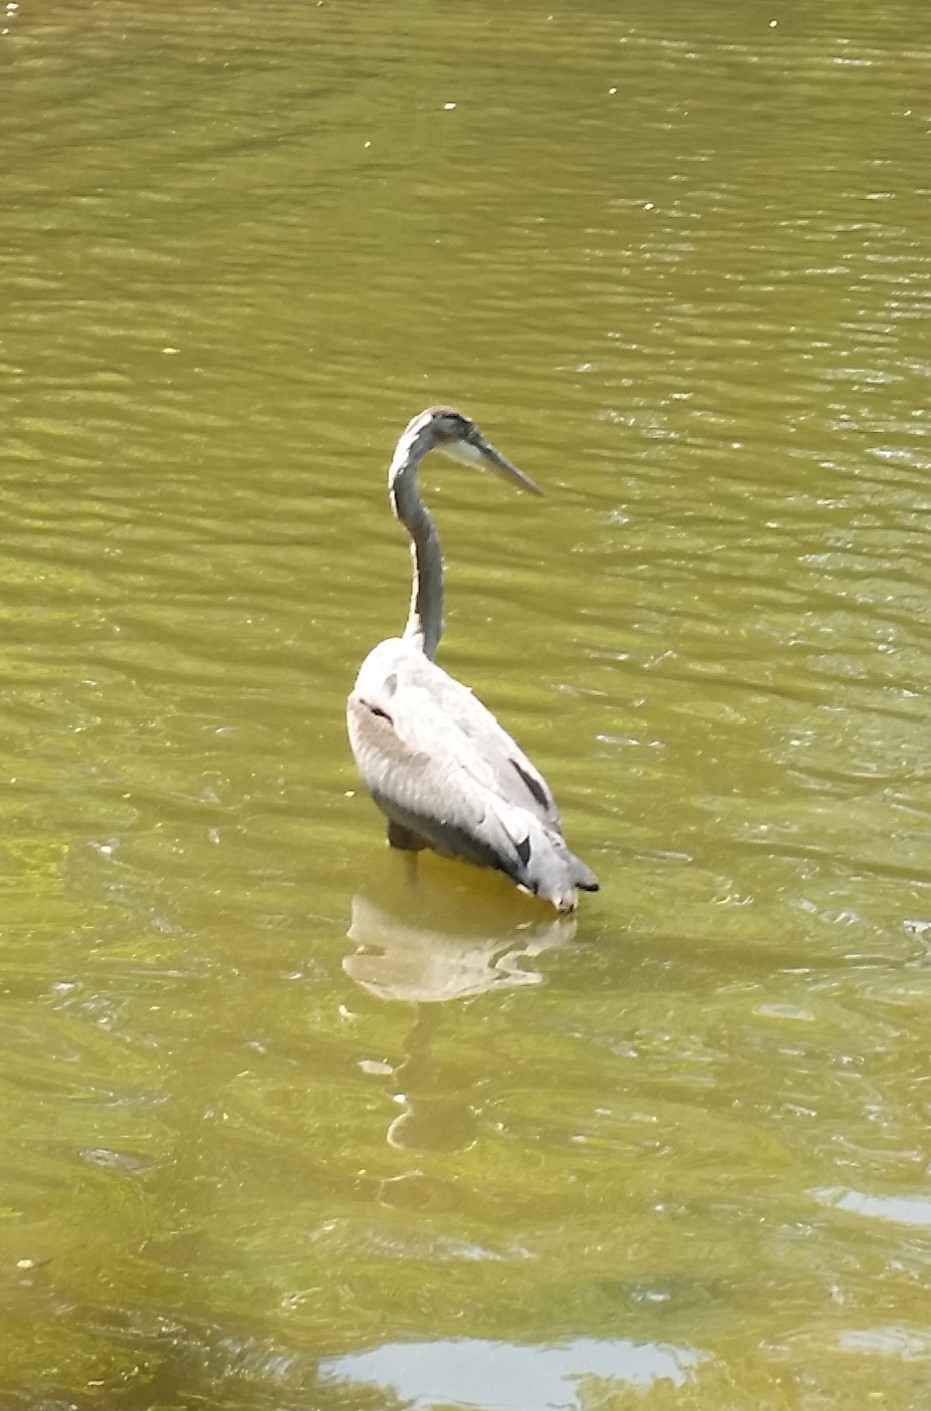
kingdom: Animalia
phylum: Chordata
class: Aves
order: Pelecaniformes
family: Ardeidae
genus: Ardea
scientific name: Ardea herodias
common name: Great blue heron
